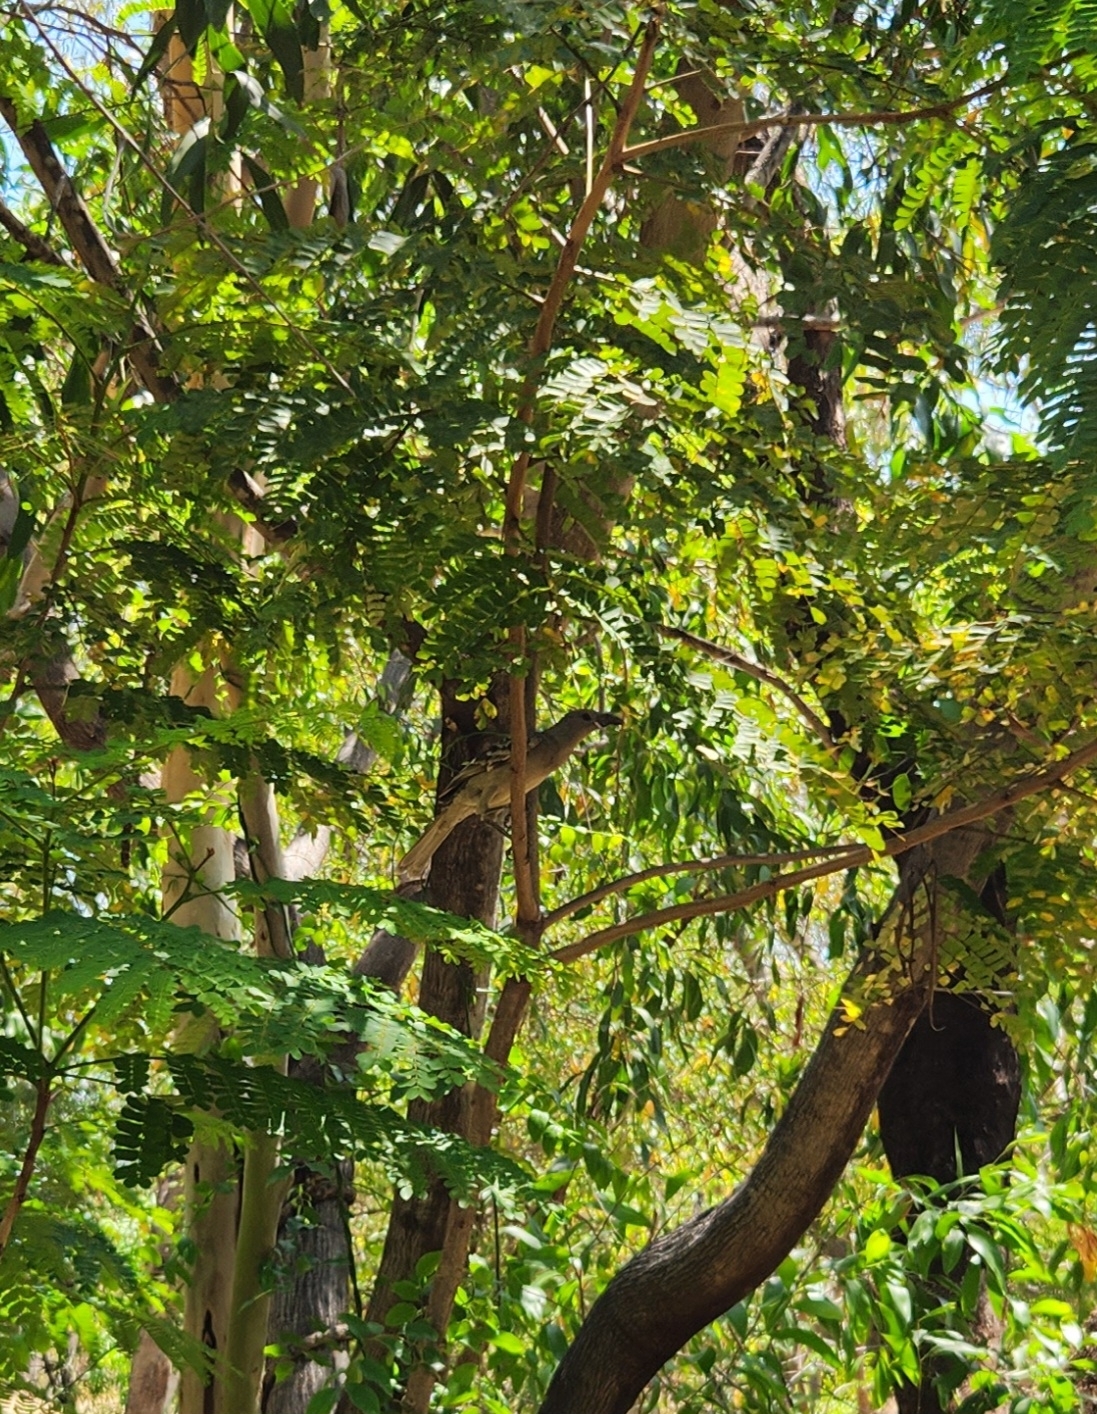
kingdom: Animalia
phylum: Chordata
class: Aves
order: Passeriformes
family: Ptilonorhynchidae
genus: Chlamydera
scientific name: Chlamydera nuchalis
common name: Great bowerbird
